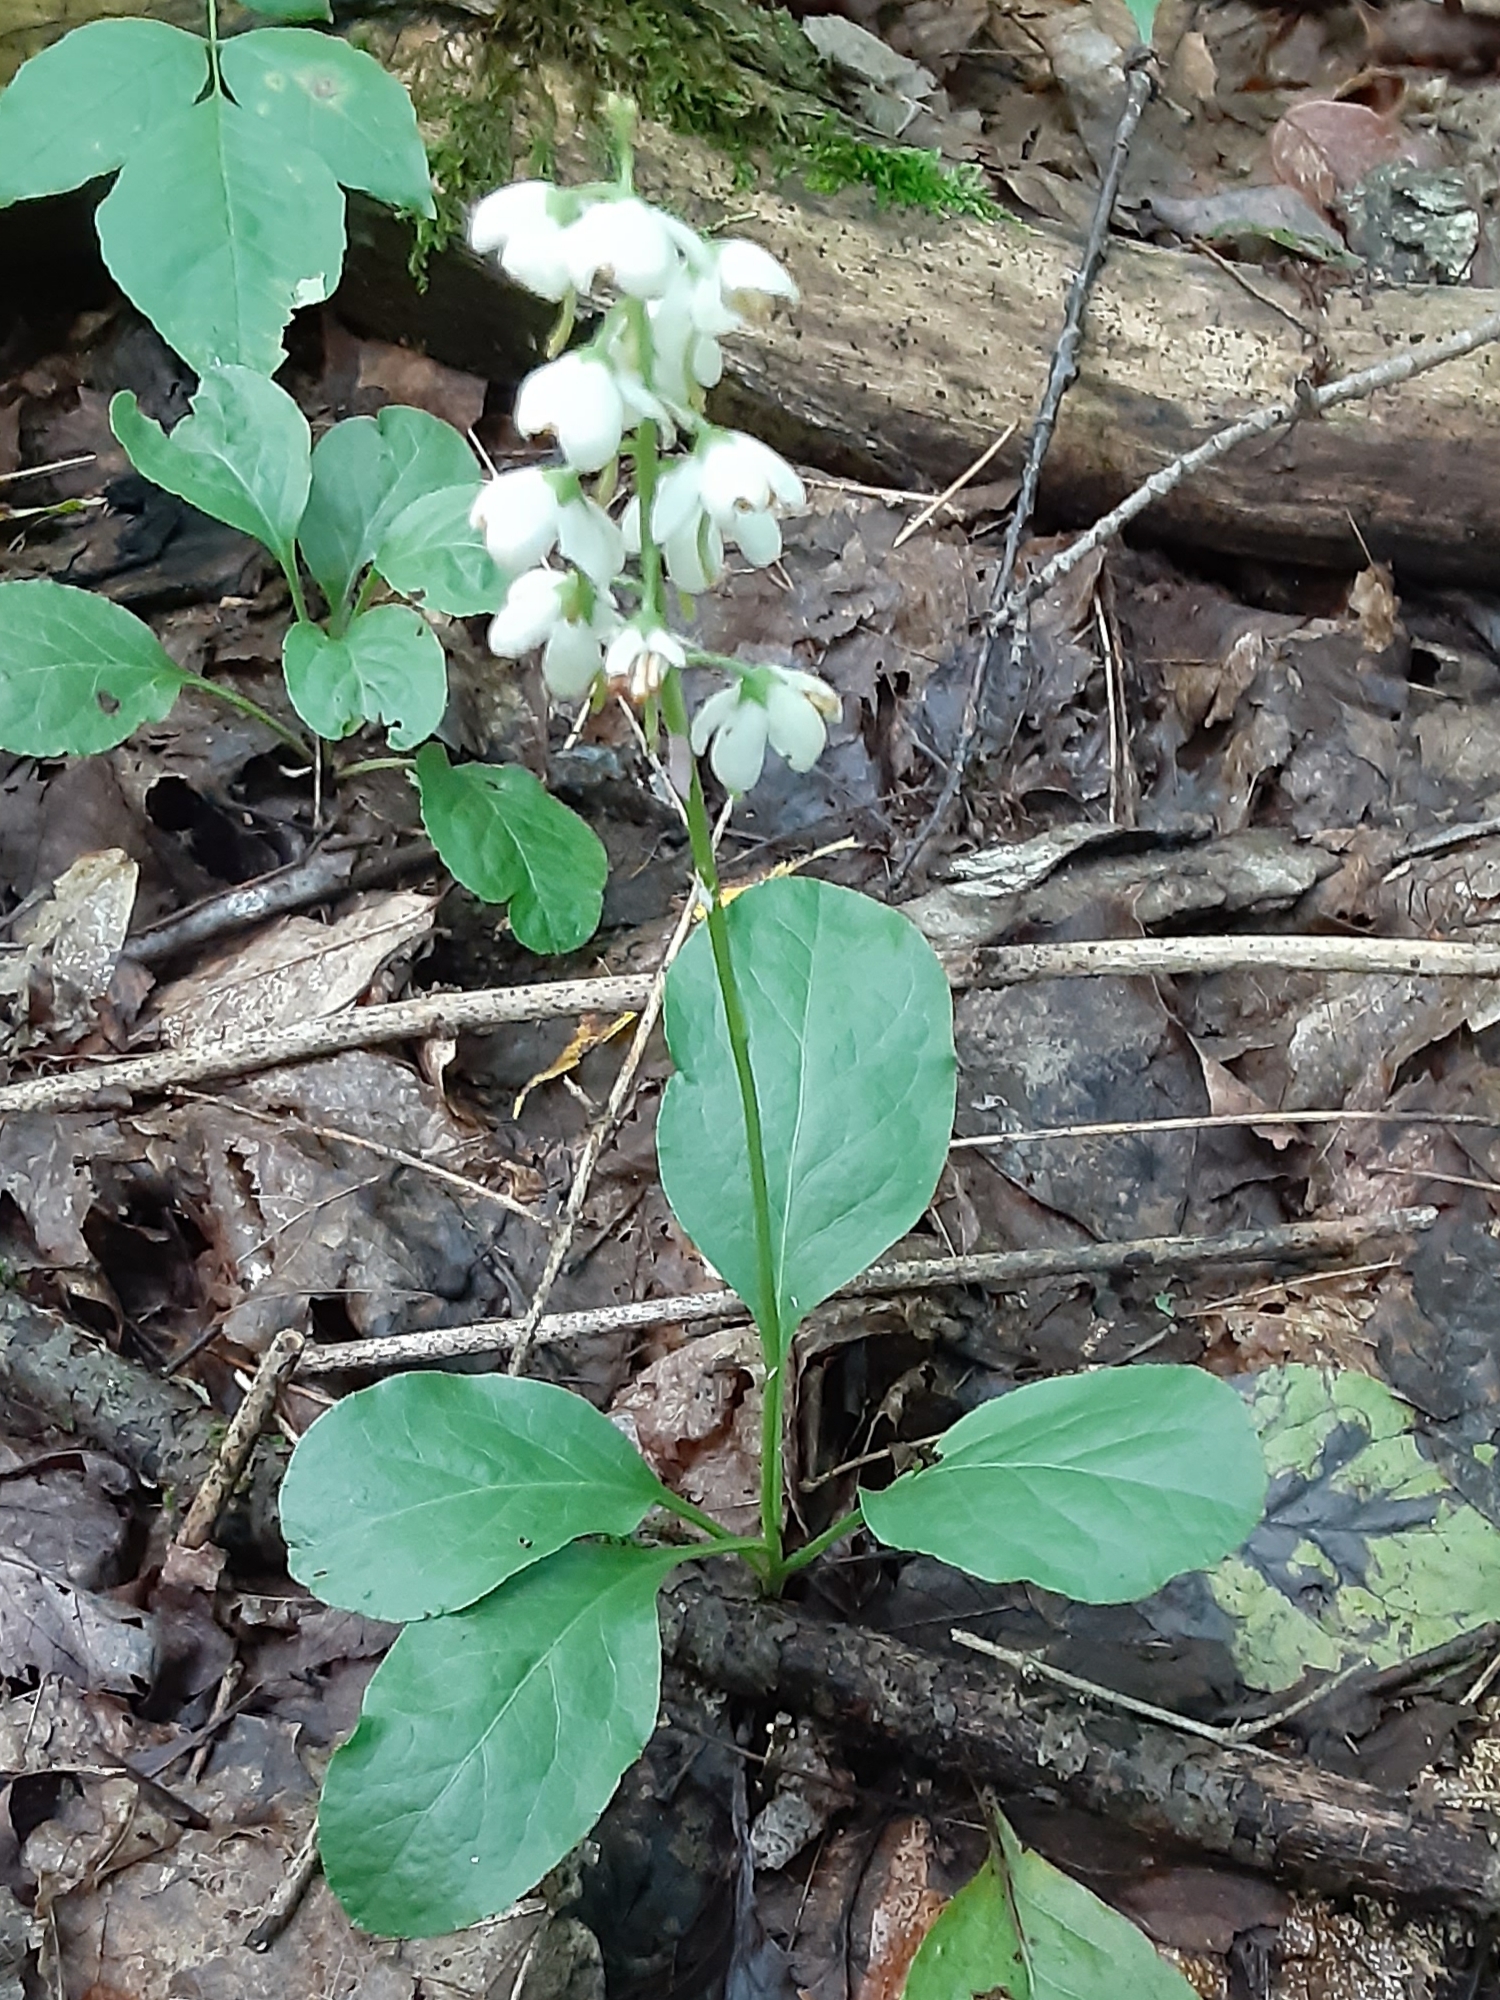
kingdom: Plantae
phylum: Tracheophyta
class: Magnoliopsida
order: Ericales
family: Ericaceae
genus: Pyrola
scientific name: Pyrola elliptica
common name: Shinleaf
